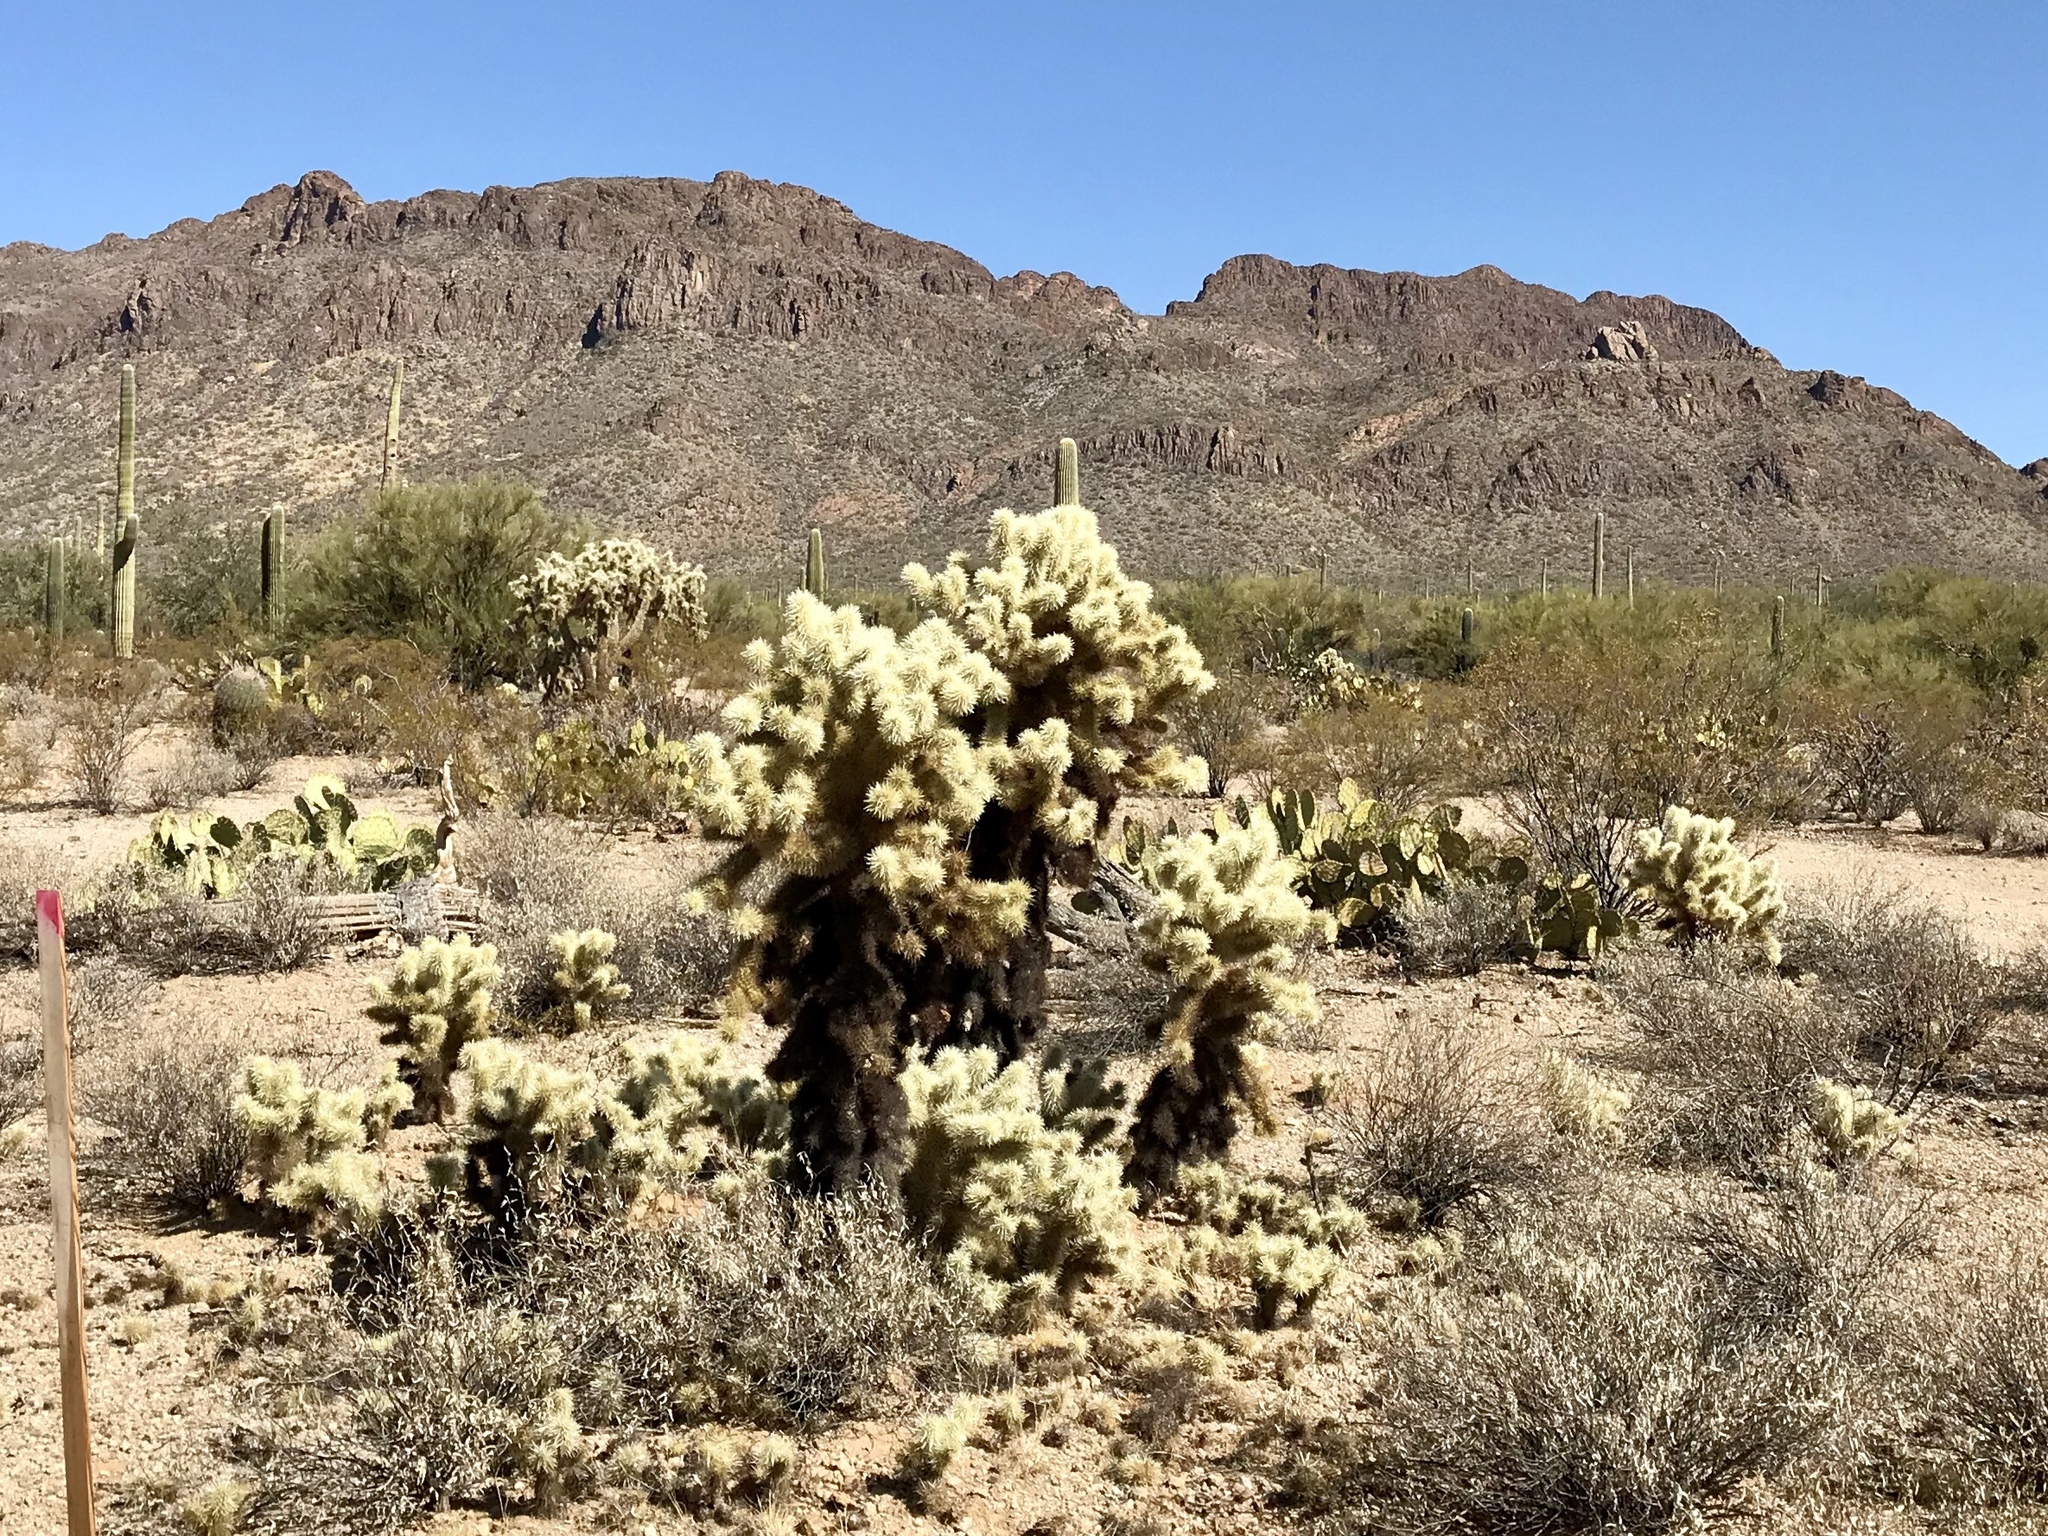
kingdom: Plantae
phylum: Tracheophyta
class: Magnoliopsida
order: Caryophyllales
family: Cactaceae
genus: Cylindropuntia
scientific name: Cylindropuntia fosbergii
